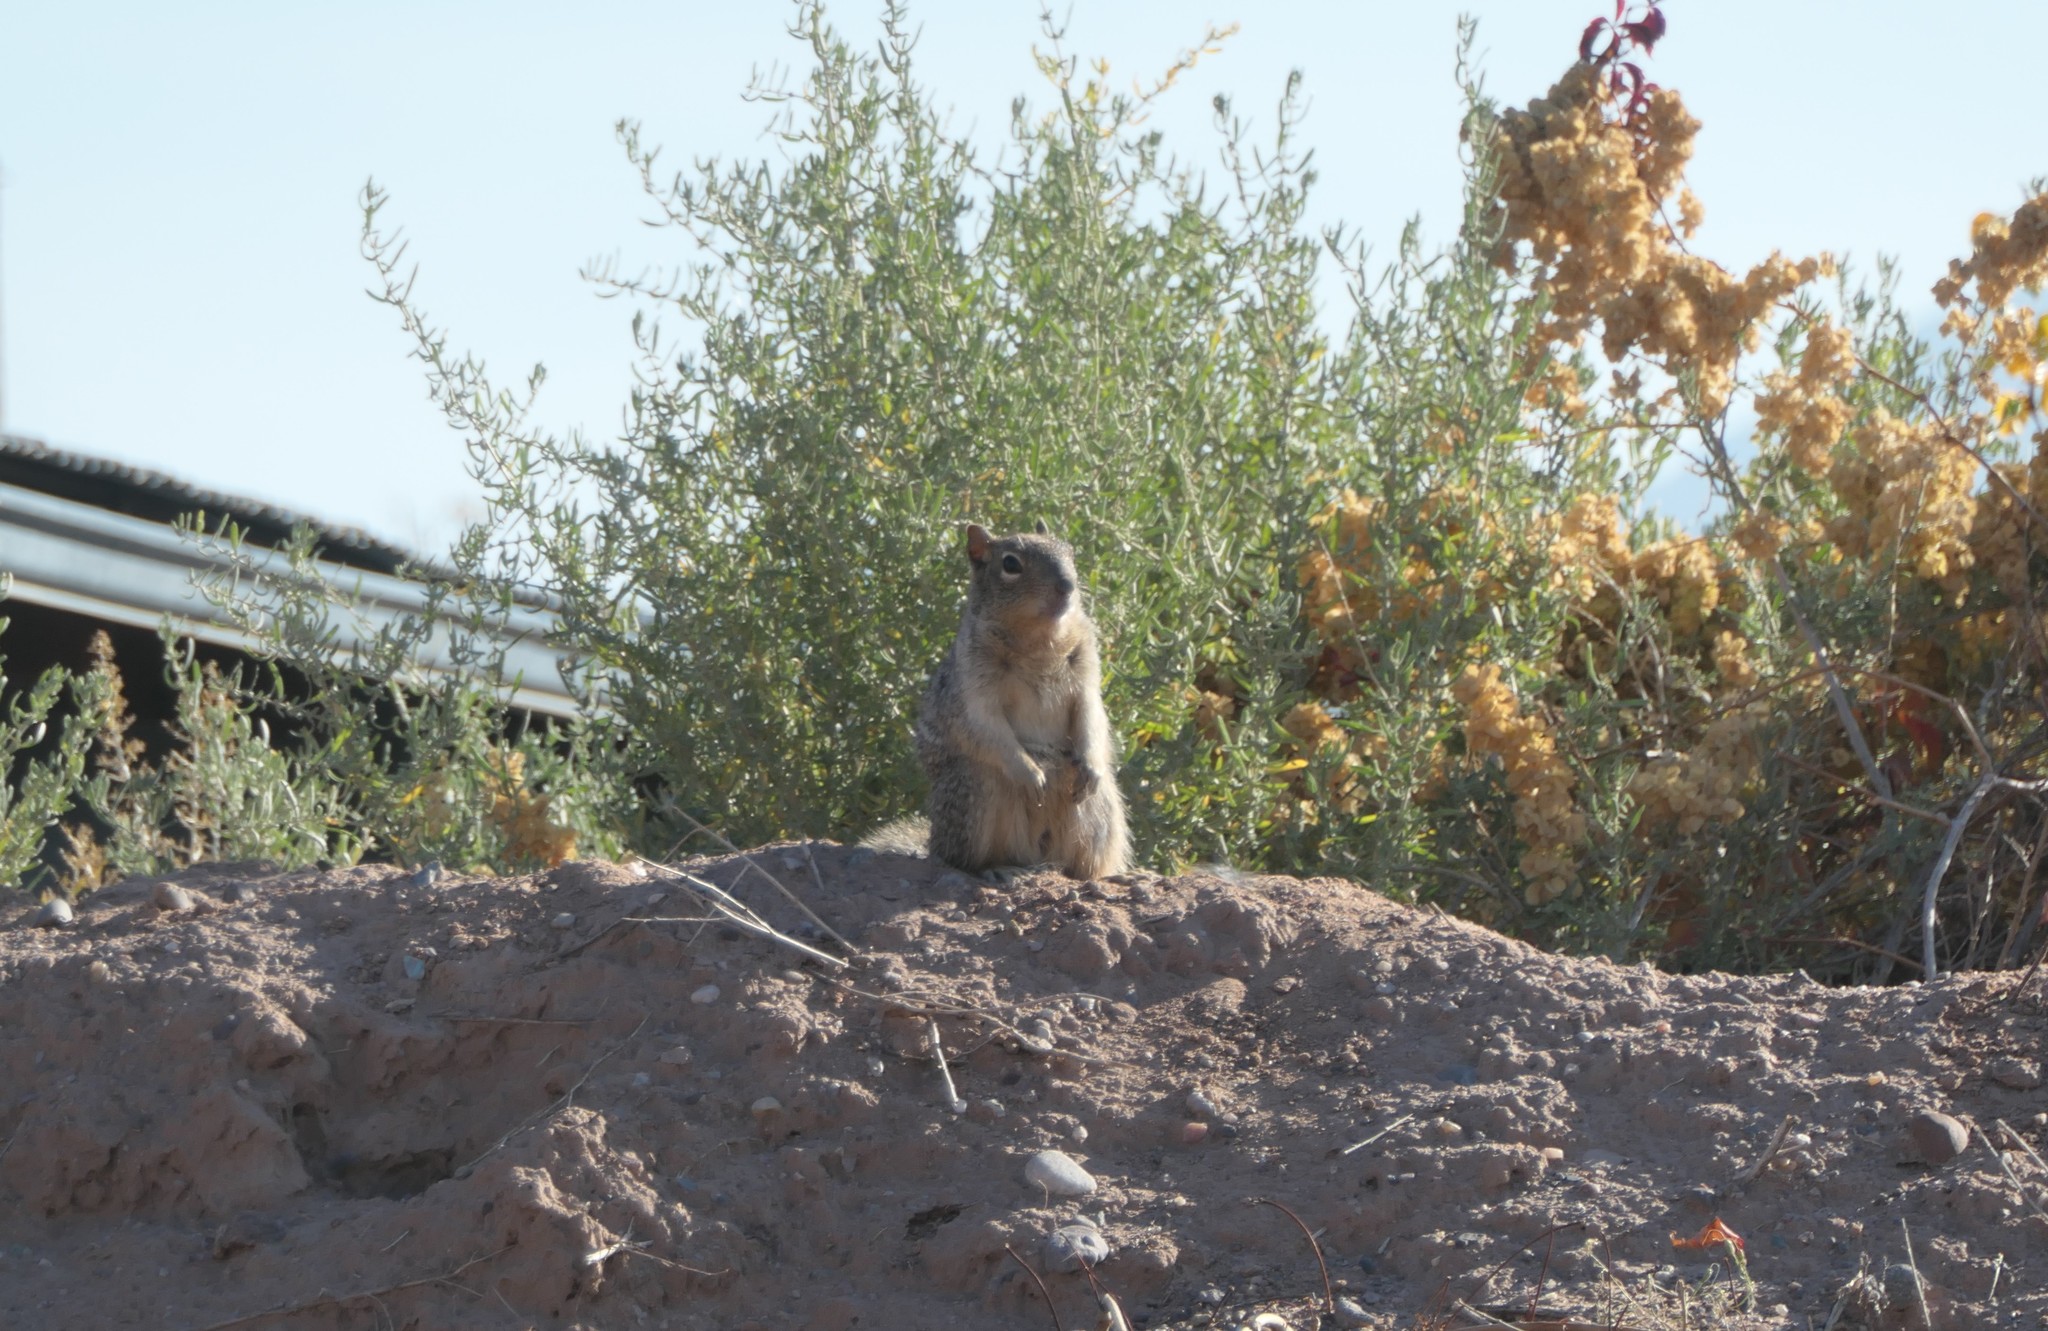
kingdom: Animalia
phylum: Chordata
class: Mammalia
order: Rodentia
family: Sciuridae
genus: Otospermophilus
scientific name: Otospermophilus variegatus
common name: Rock squirrel
